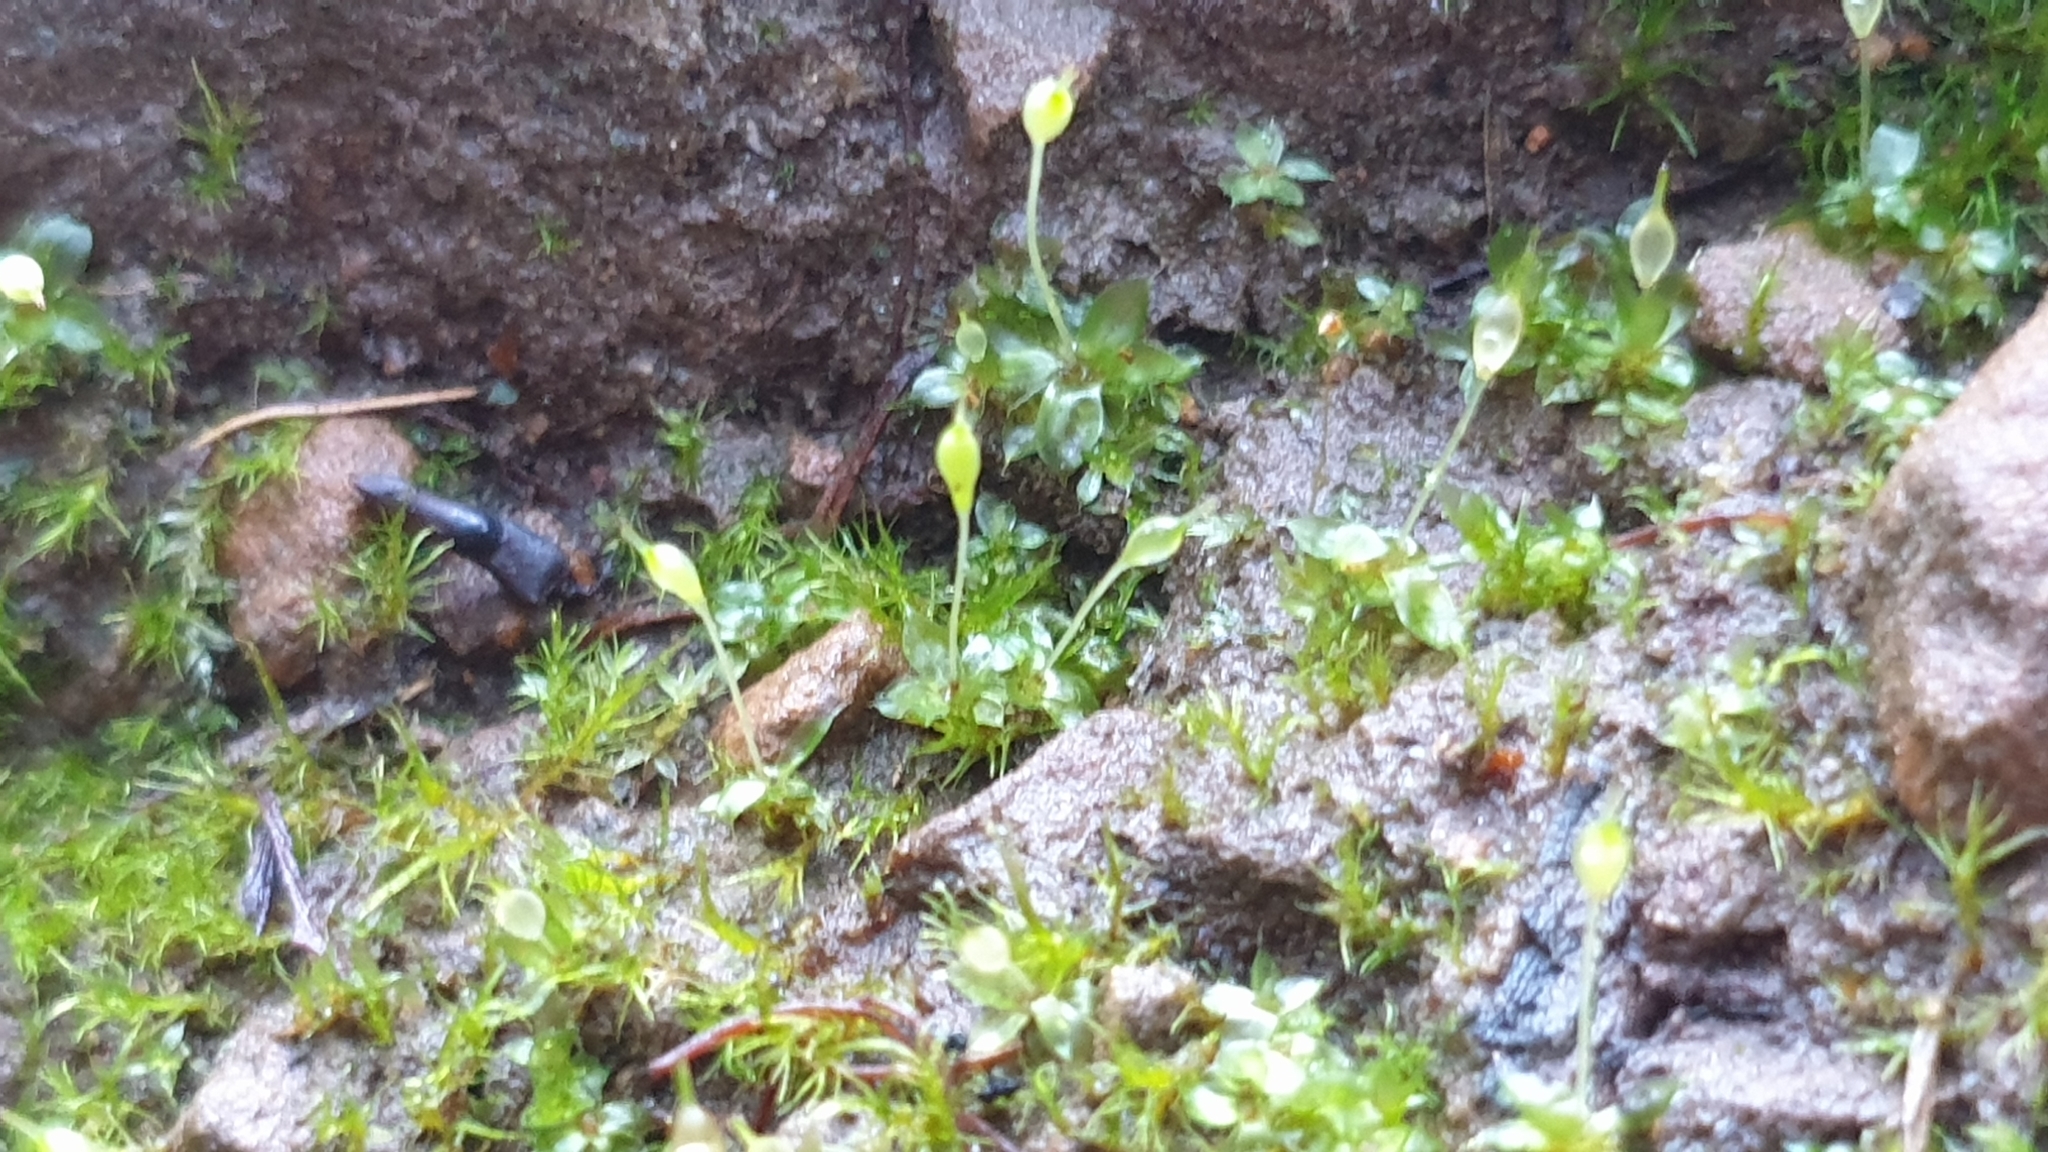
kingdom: Plantae
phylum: Bryophyta
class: Bryopsida
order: Funariales
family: Funariaceae
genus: Entosthodon
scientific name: Entosthodon subnudus
